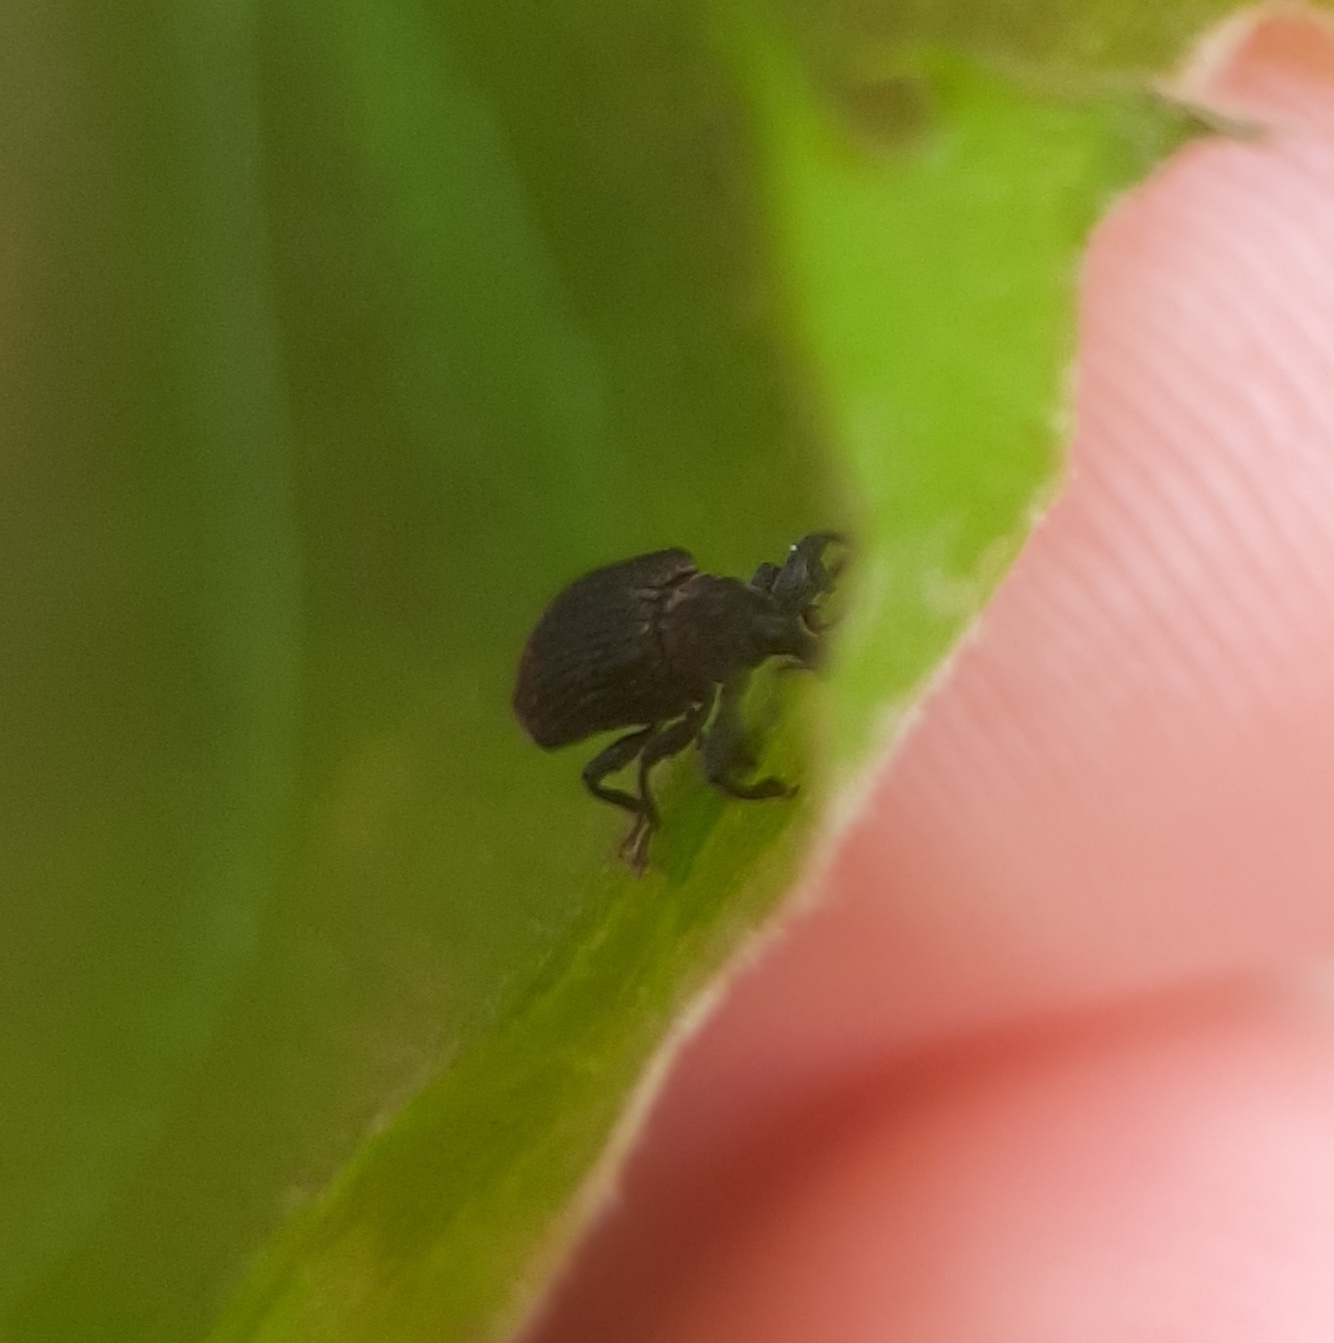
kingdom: Animalia
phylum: Arthropoda
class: Insecta
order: Coleoptera
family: Curculionidae
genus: Odontopus
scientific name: Odontopus calceatus
